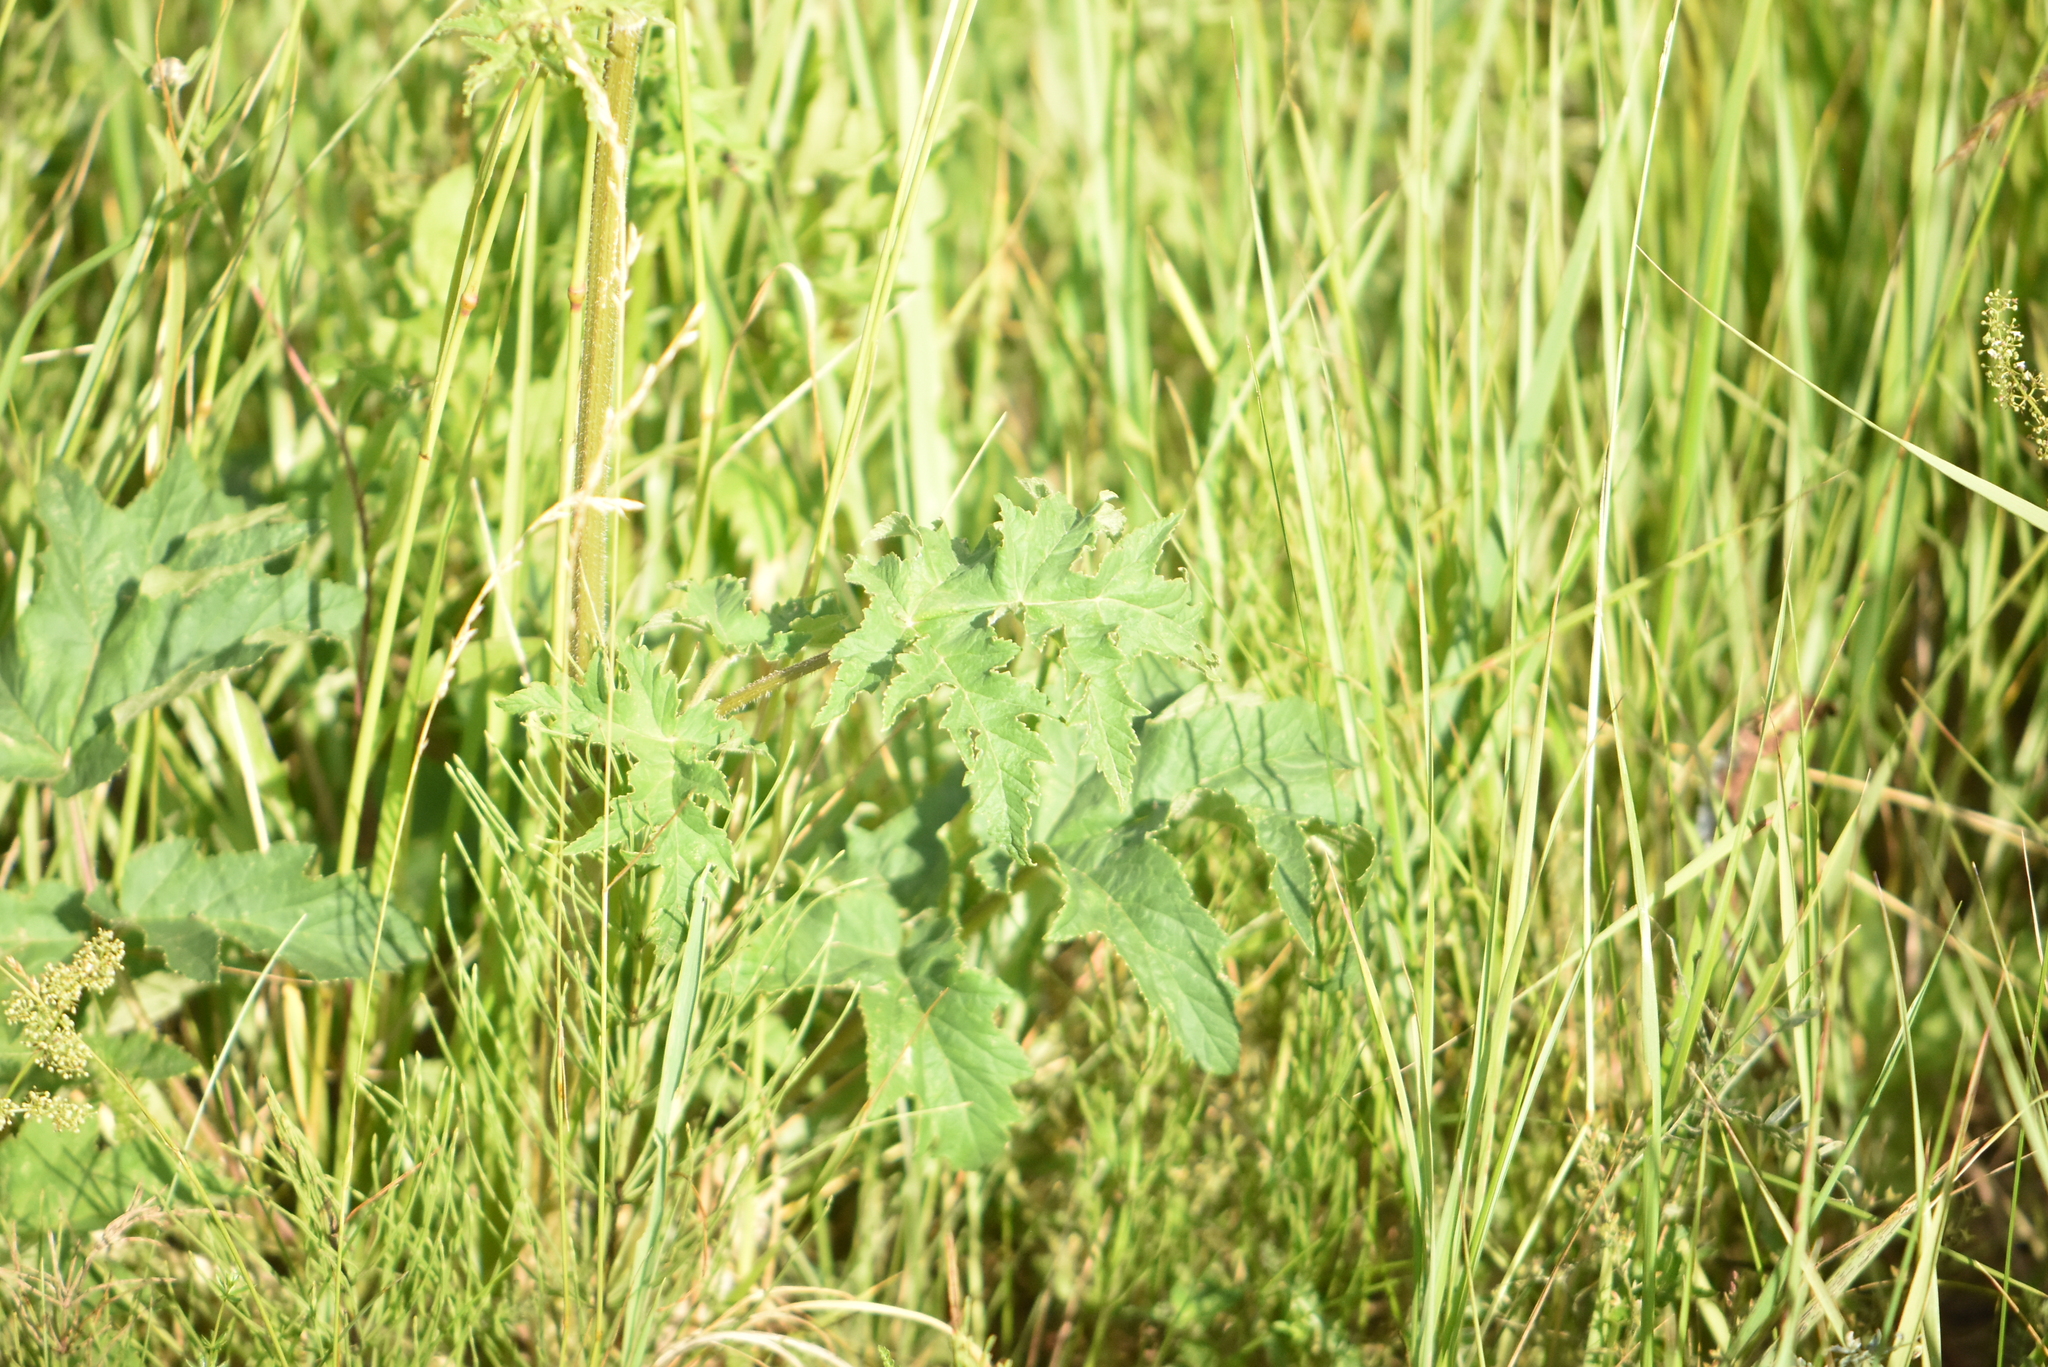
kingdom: Plantae
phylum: Tracheophyta
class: Magnoliopsida
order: Apiales
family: Apiaceae
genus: Heracleum
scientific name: Heracleum sphondylium
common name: Hogweed
